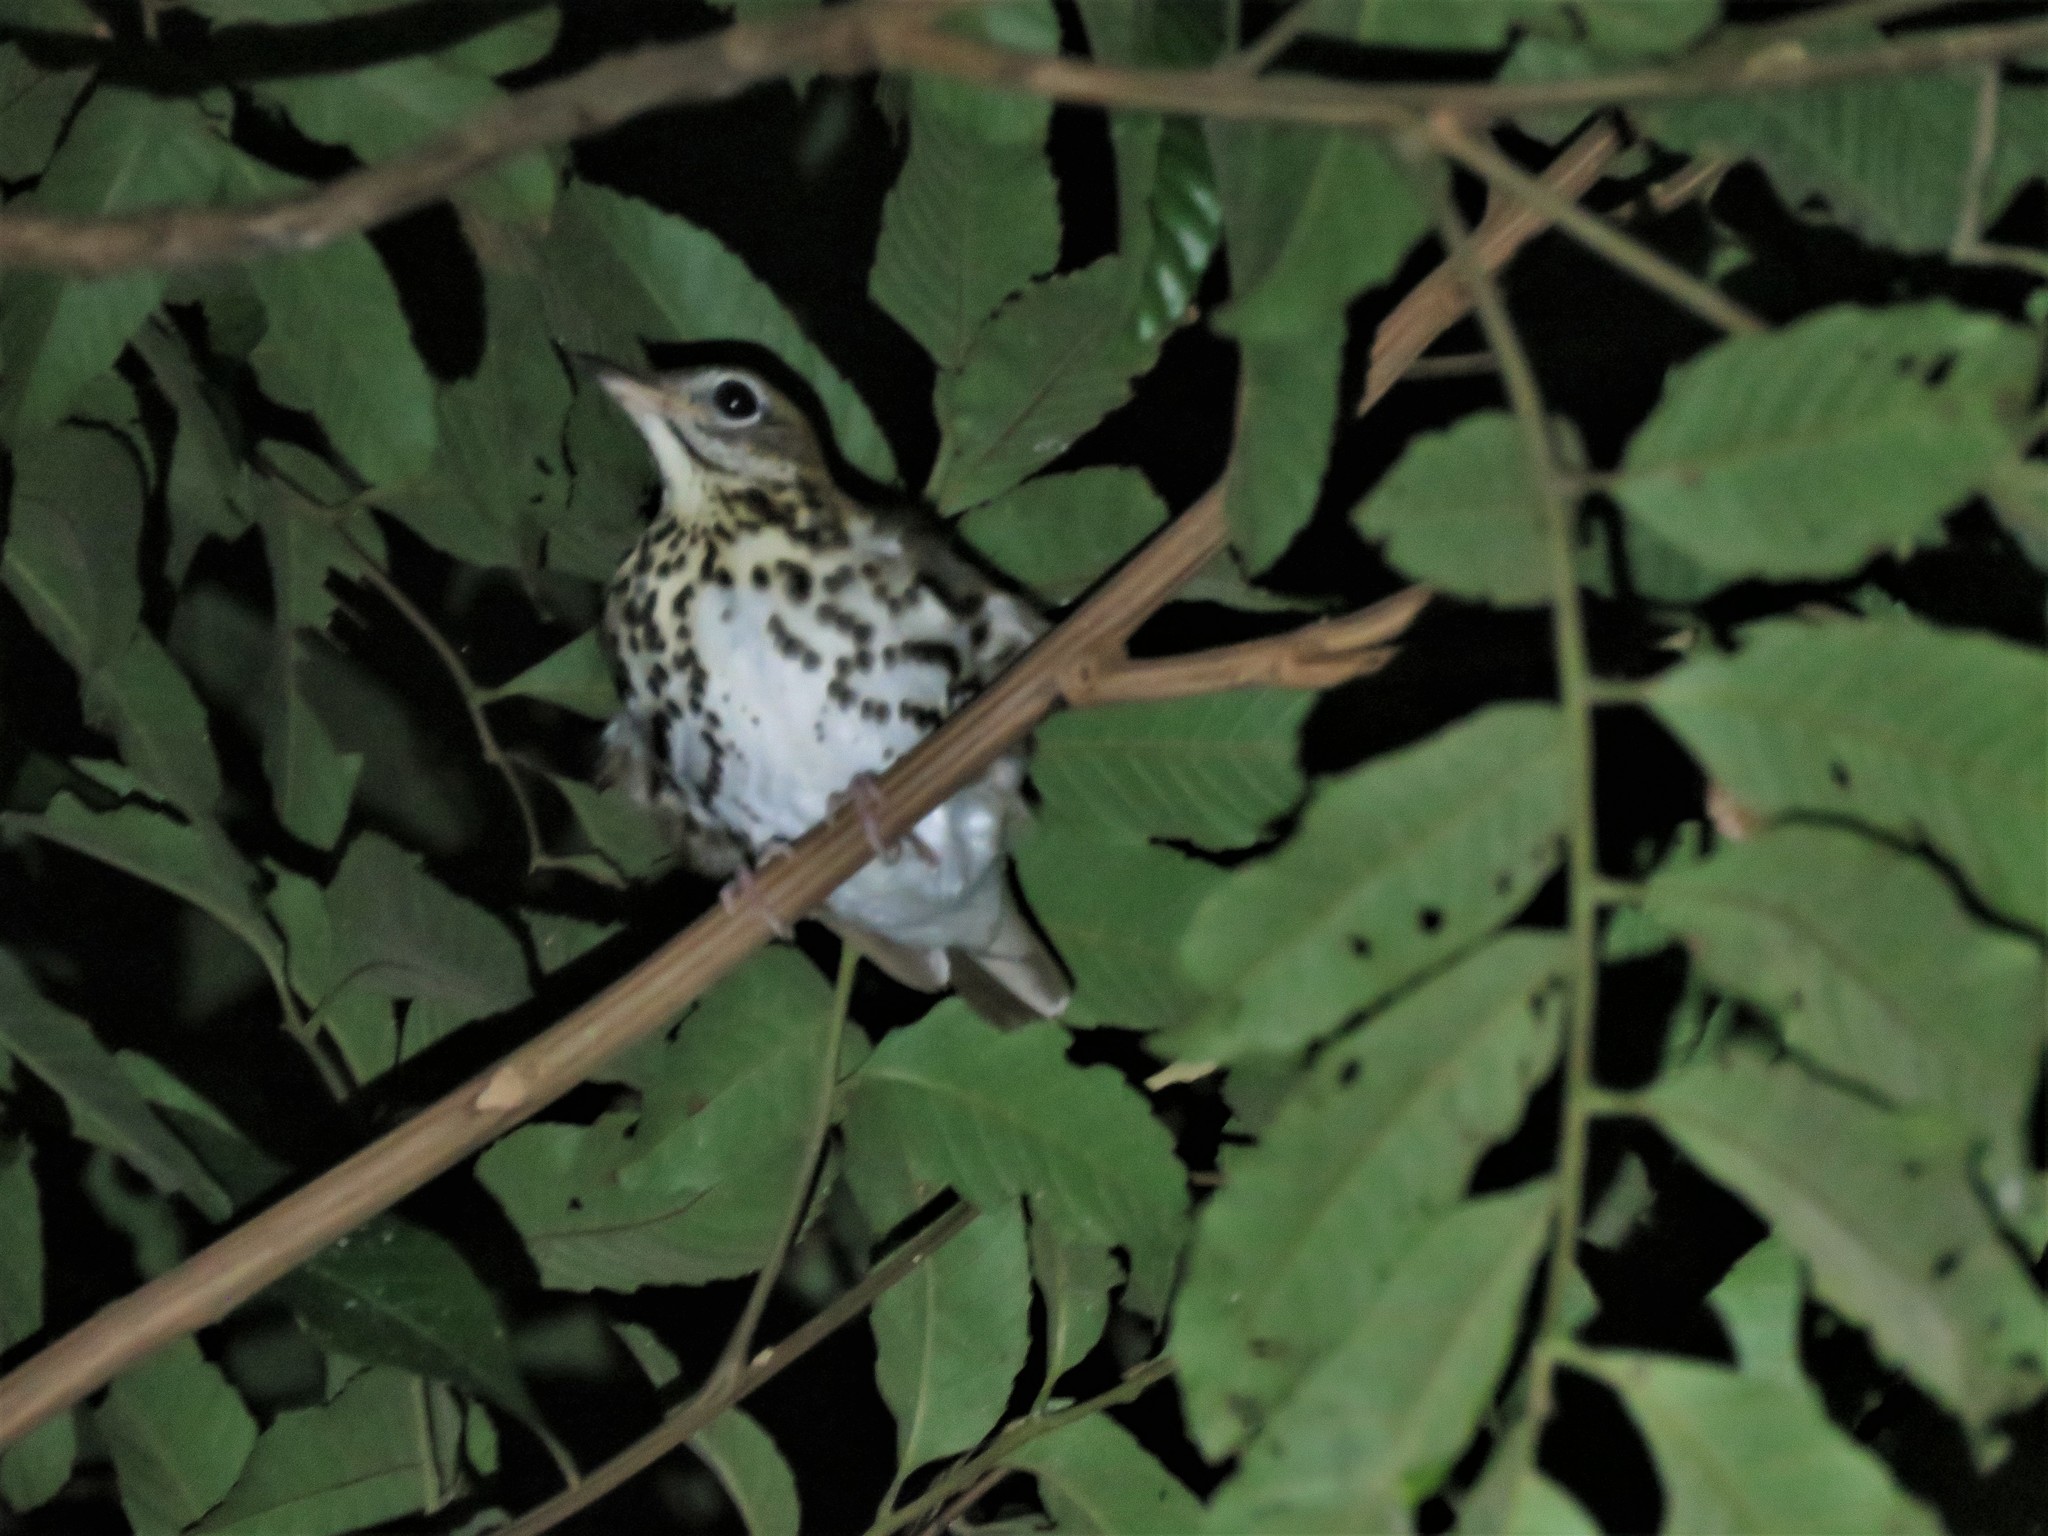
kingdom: Animalia
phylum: Chordata
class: Aves
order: Passeriformes
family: Turdidae
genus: Hylocichla
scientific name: Hylocichla mustelina
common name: Wood thrush
